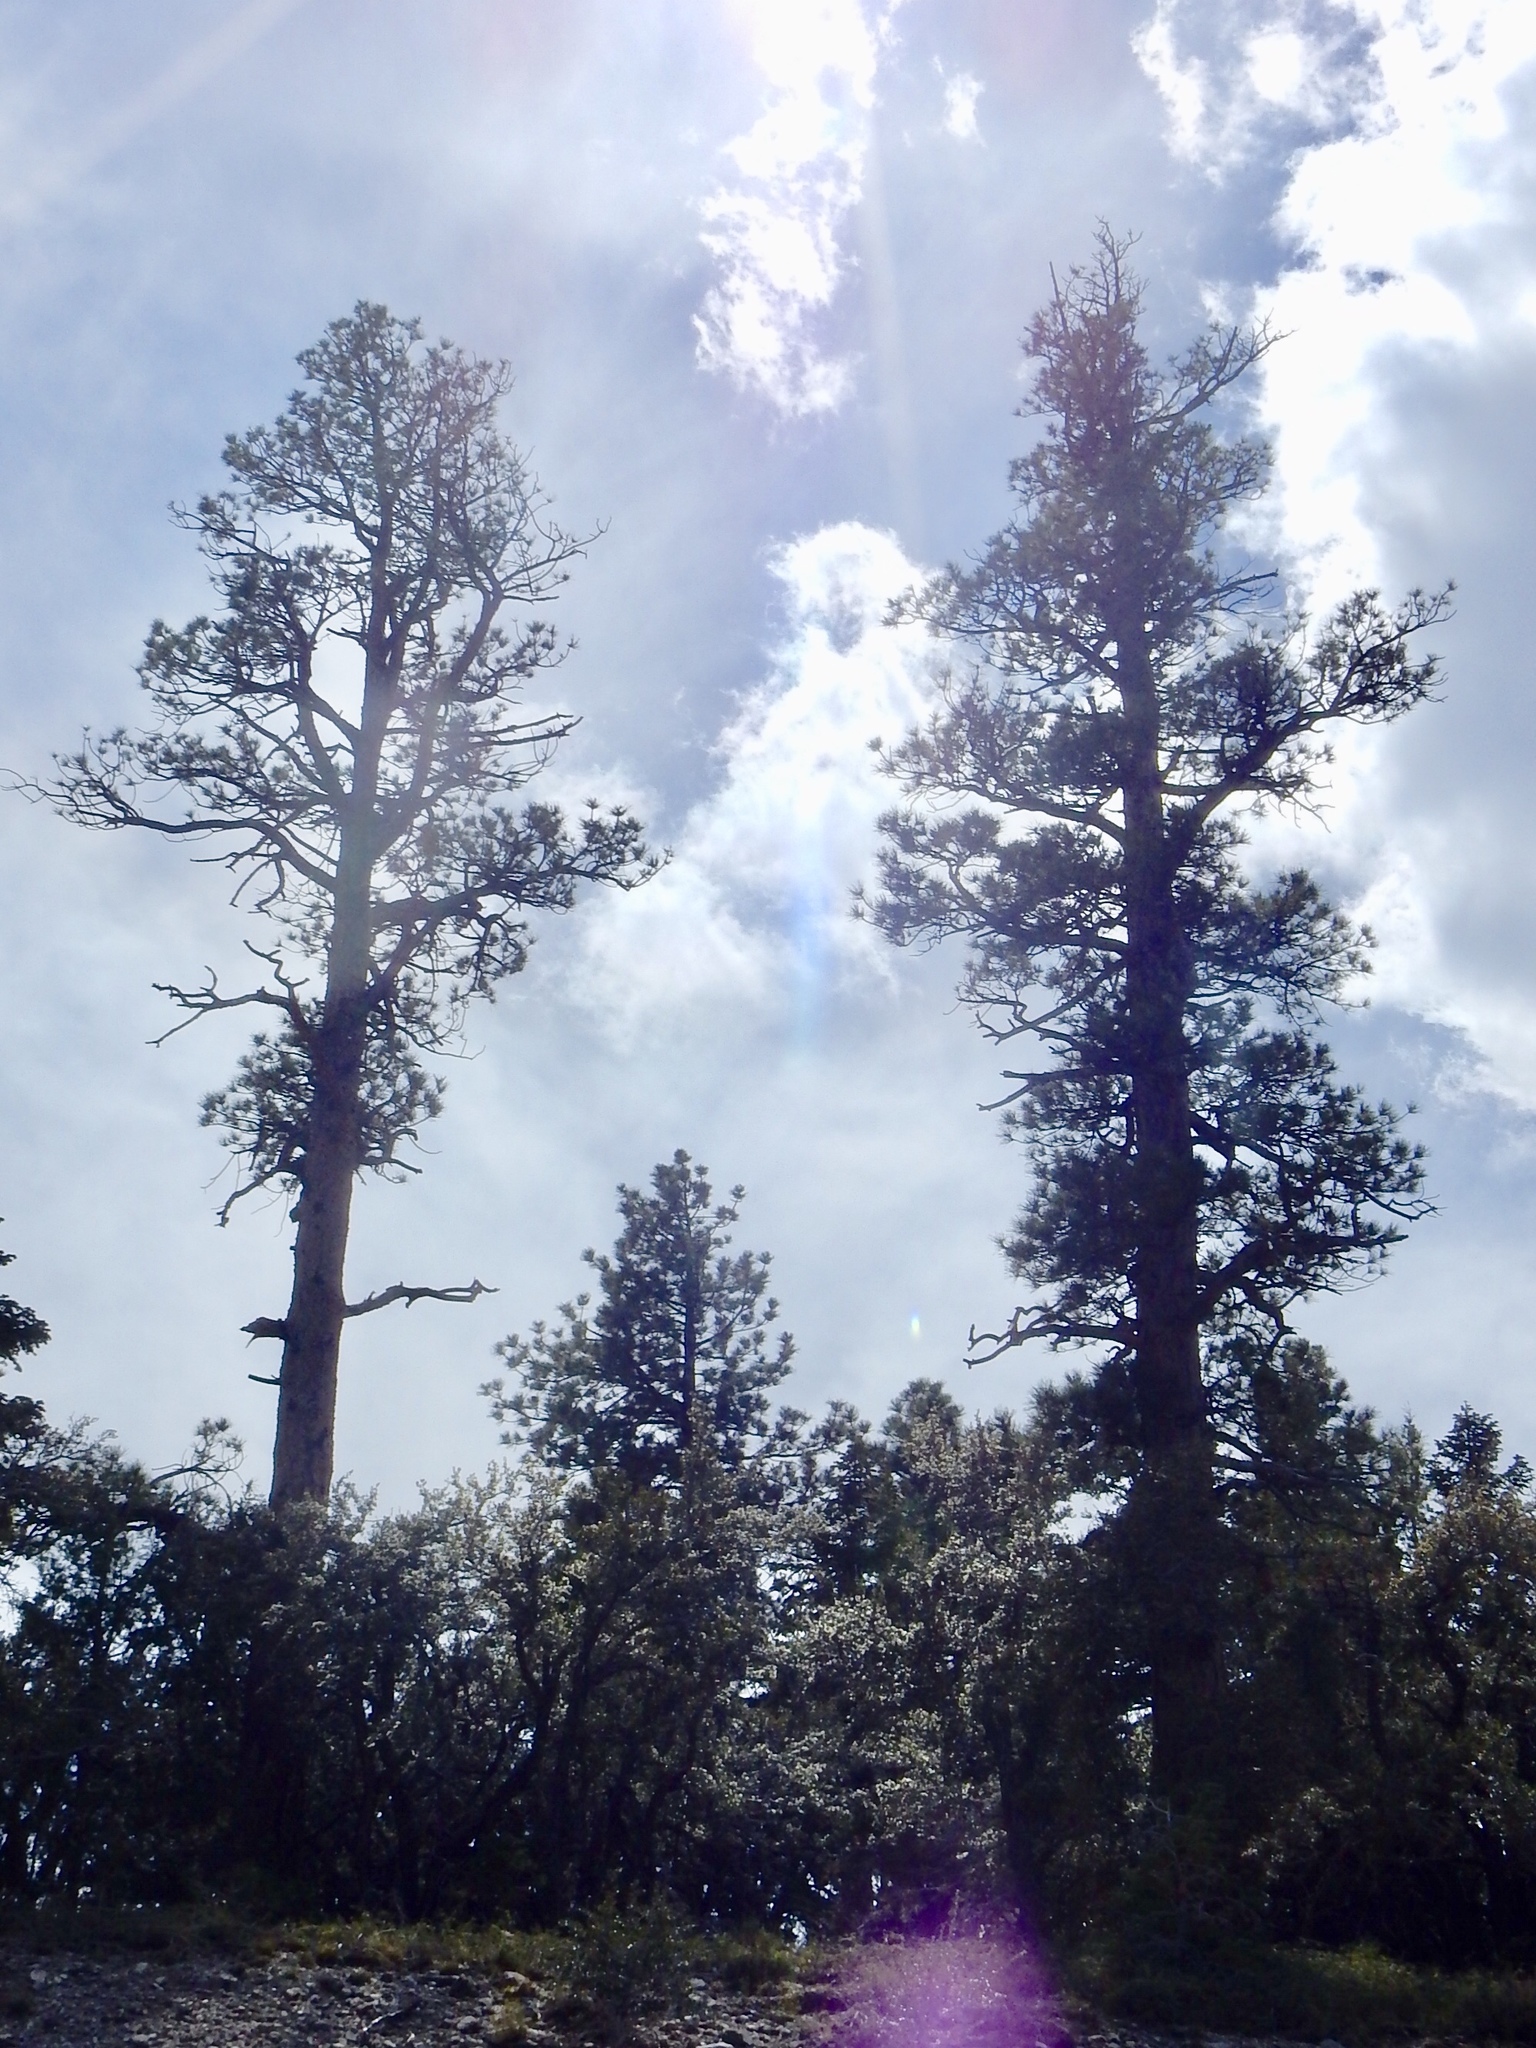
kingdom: Plantae
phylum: Tracheophyta
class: Pinopsida
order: Pinales
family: Pinaceae
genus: Pinus
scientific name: Pinus ponderosa
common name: Western yellow-pine
